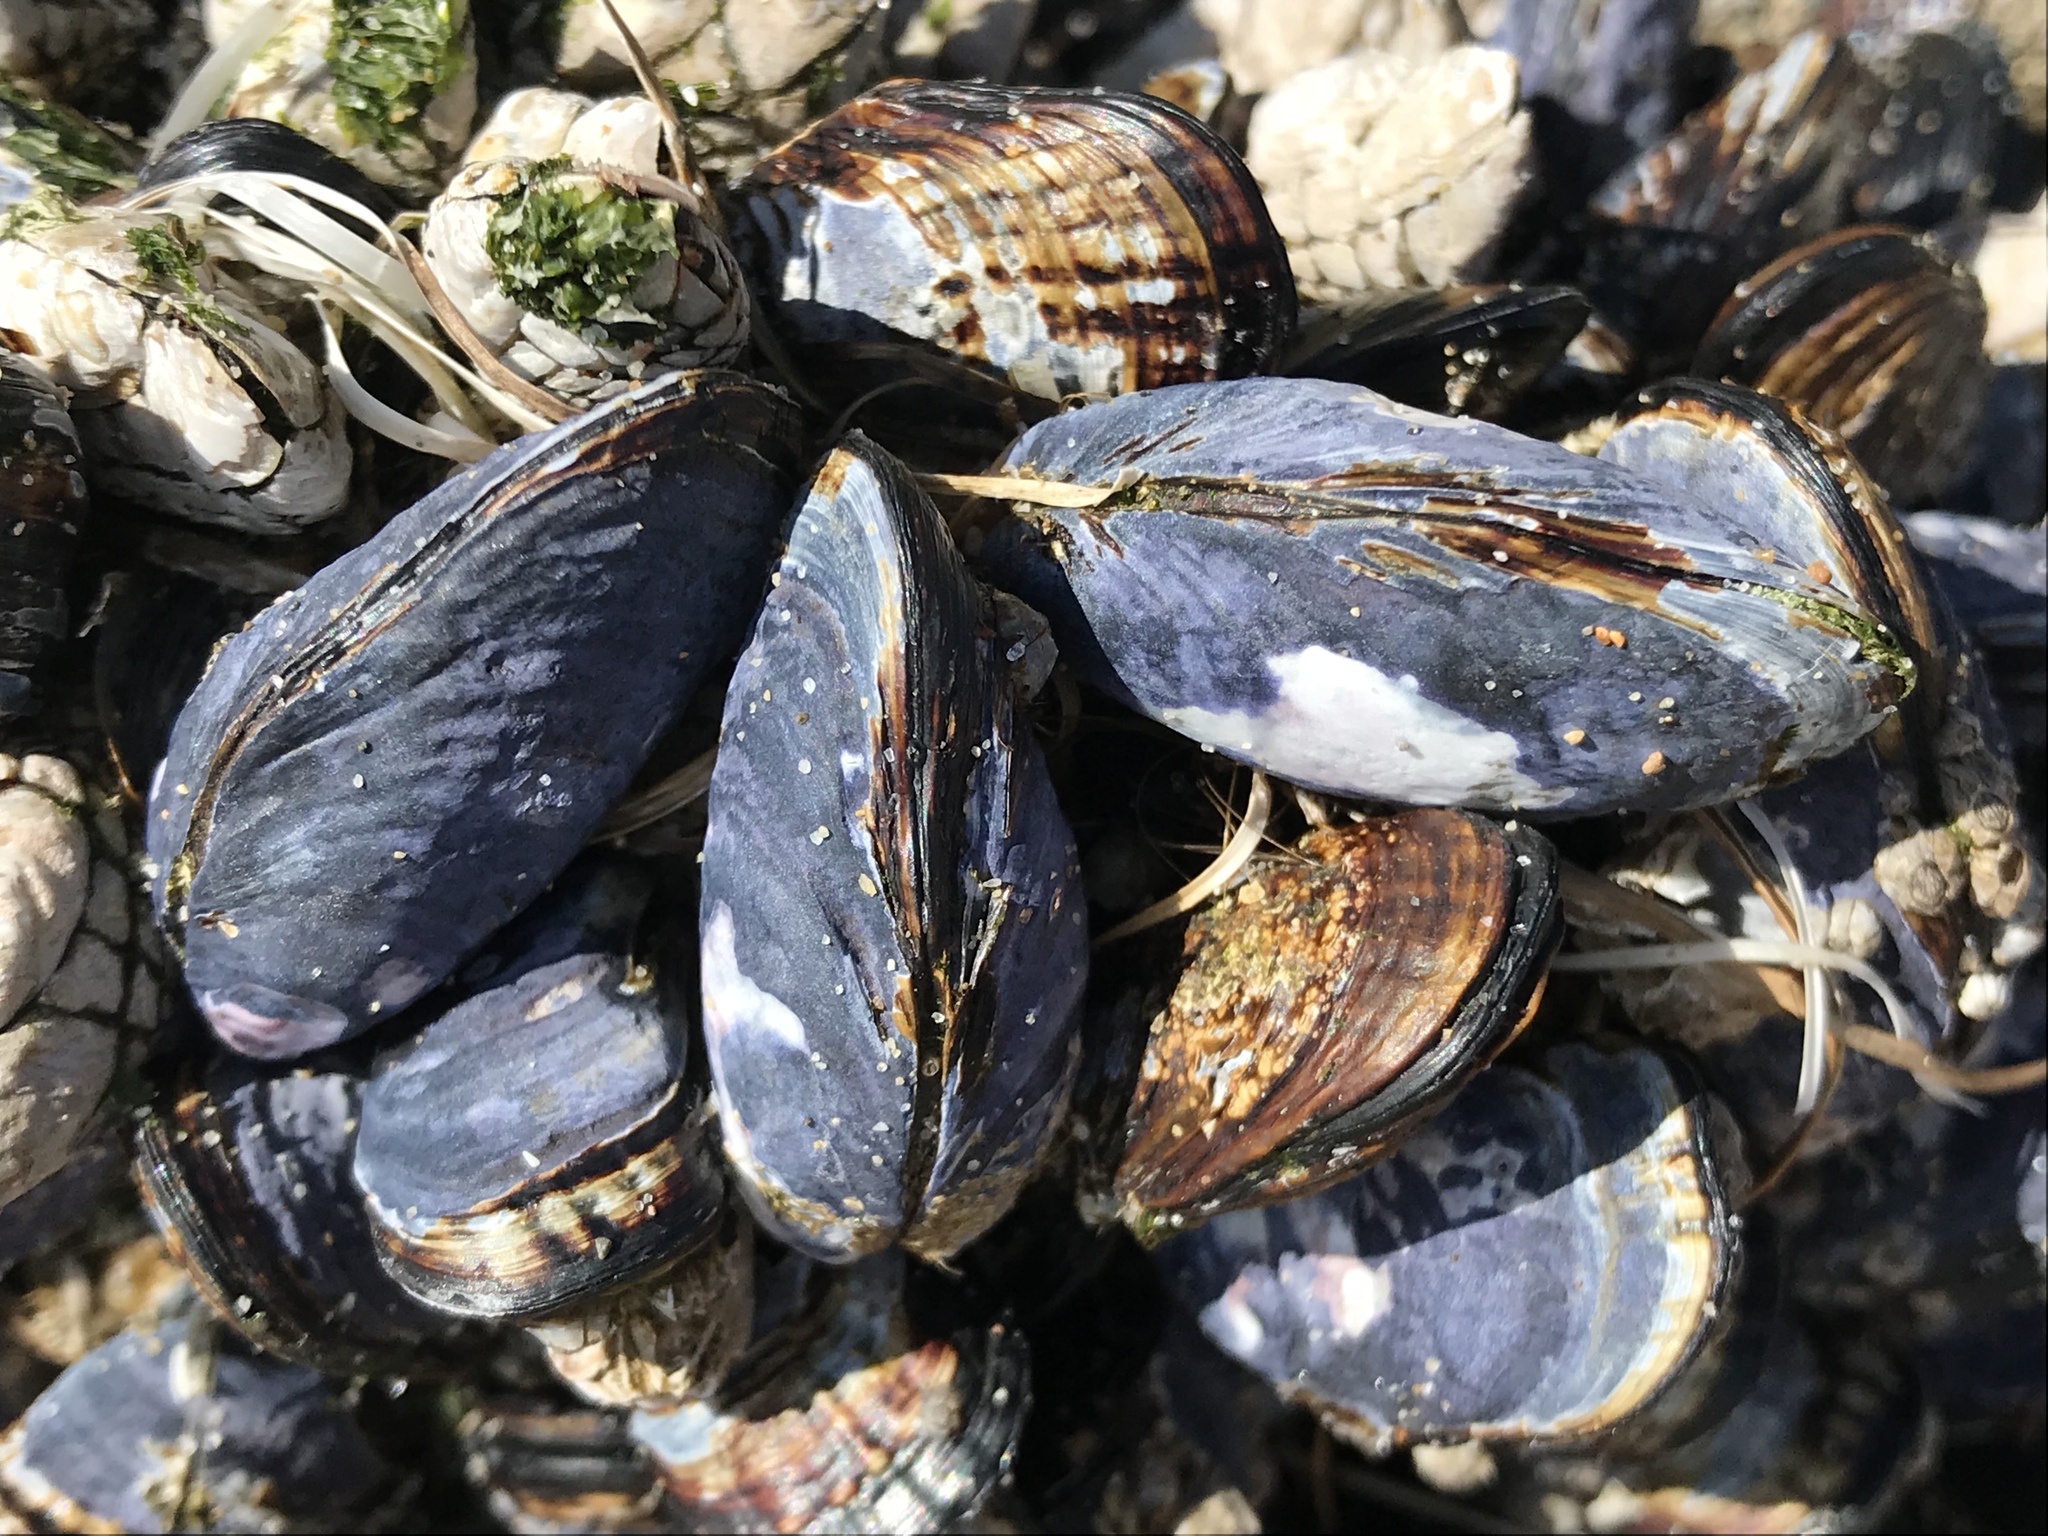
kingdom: Animalia
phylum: Mollusca
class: Bivalvia
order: Mytilida
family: Mytilidae
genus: Mytilus
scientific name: Mytilus californianus
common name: California mussel
